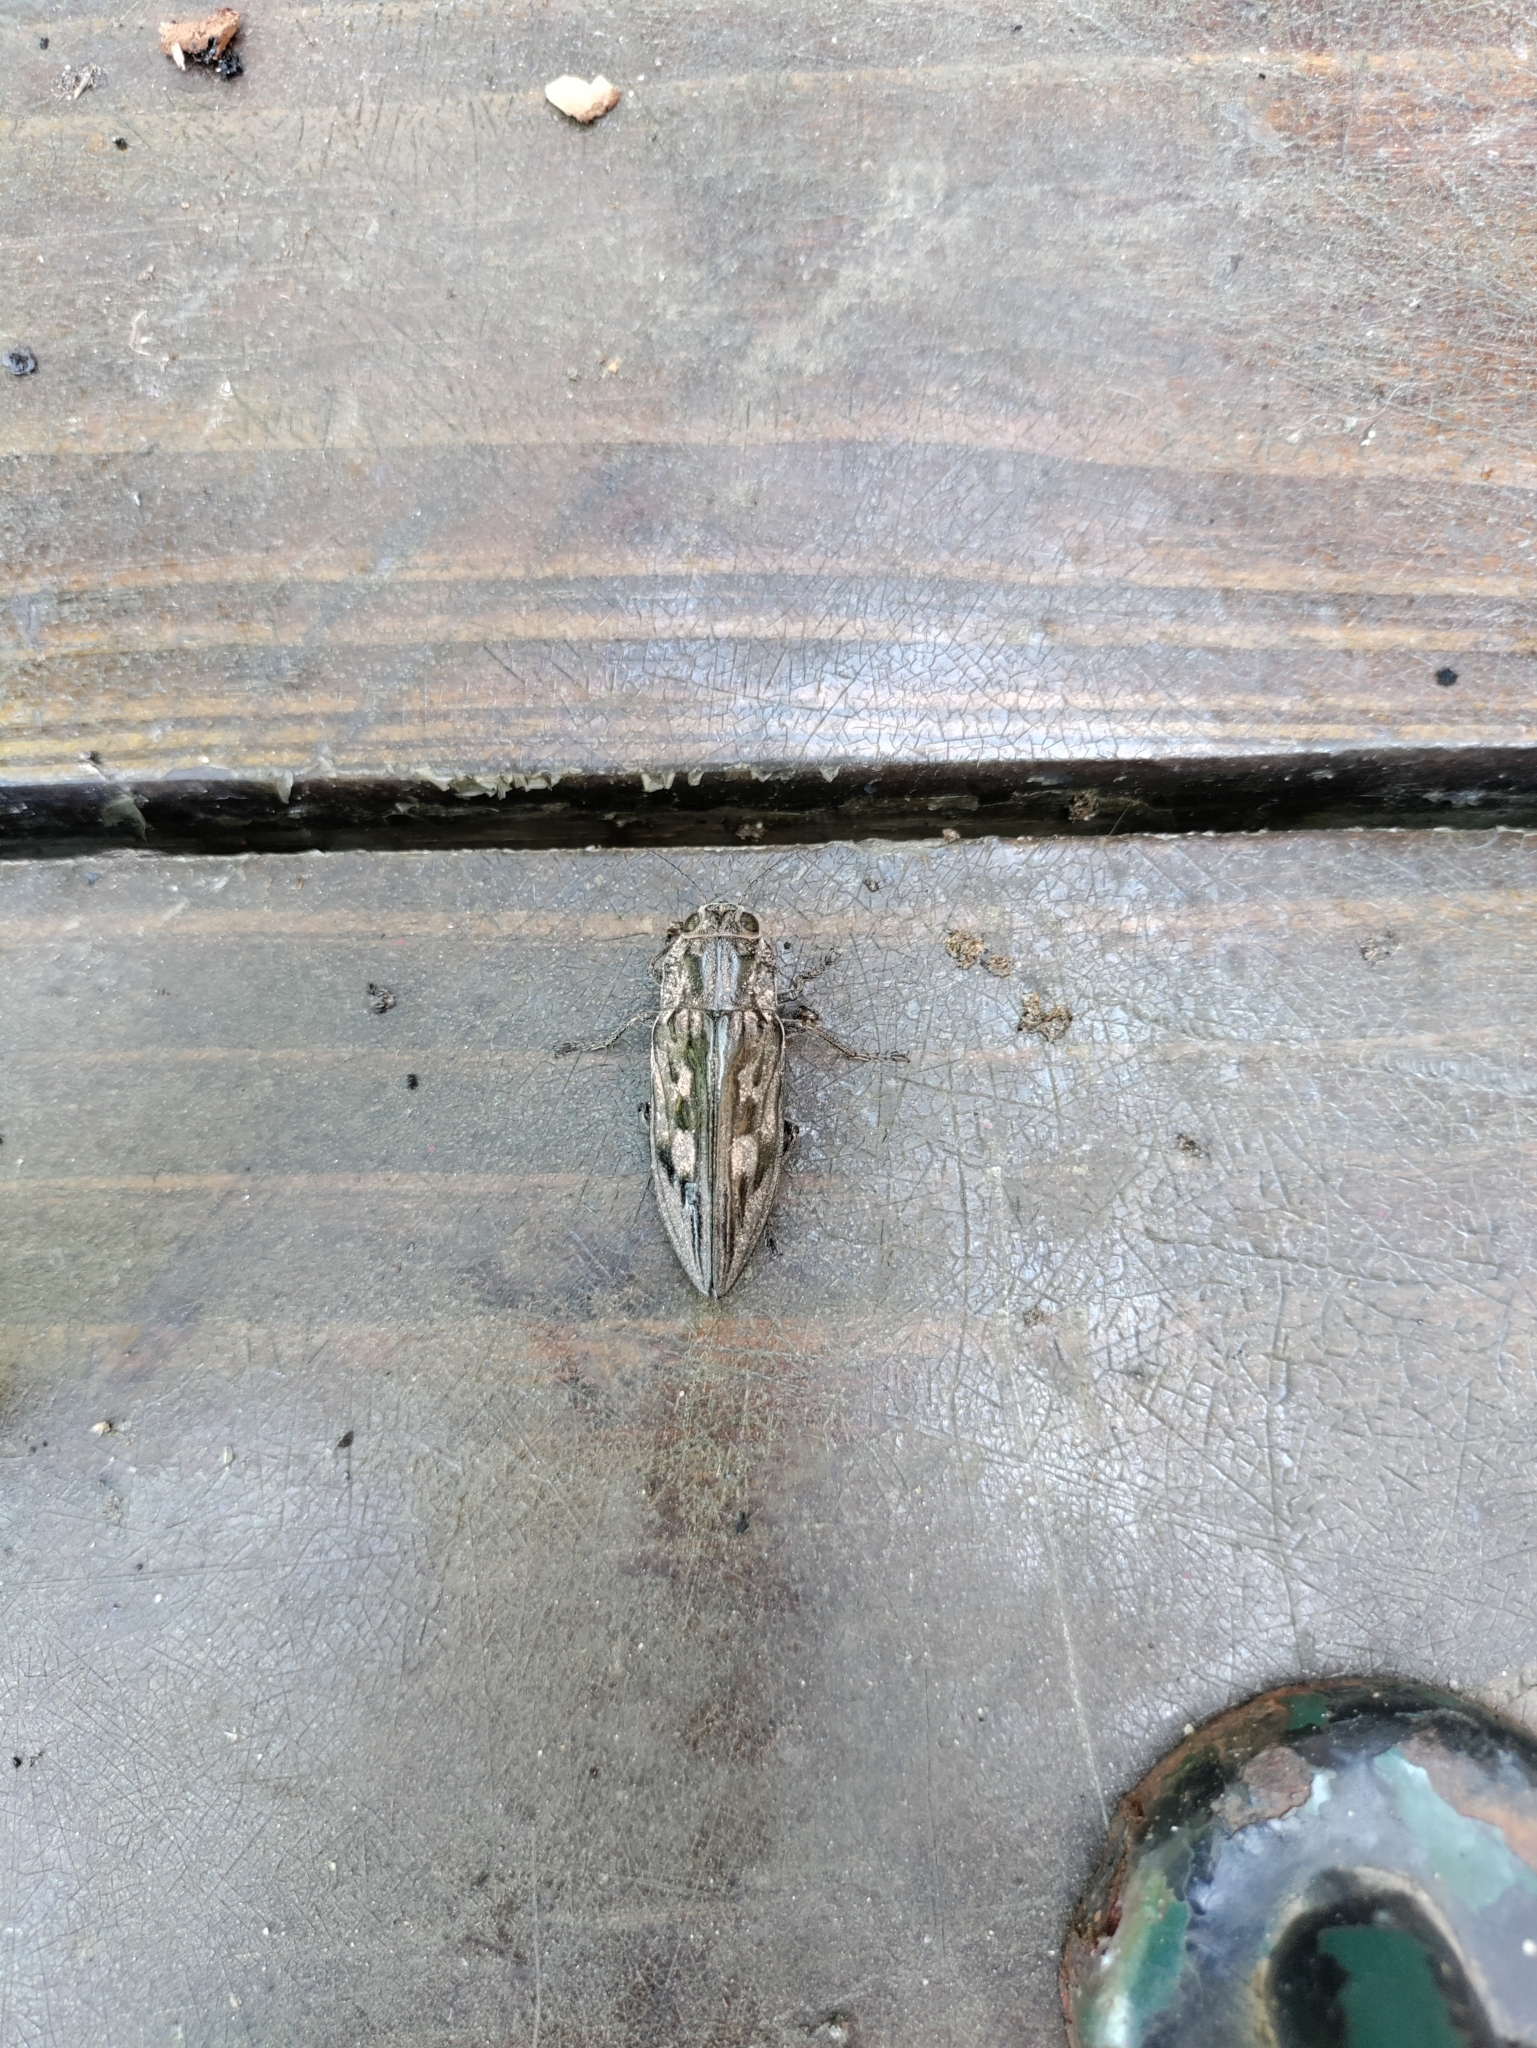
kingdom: Animalia
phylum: Arthropoda
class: Insecta
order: Coleoptera
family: Buprestidae
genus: Chalcophora
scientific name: Chalcophora virginiensis
